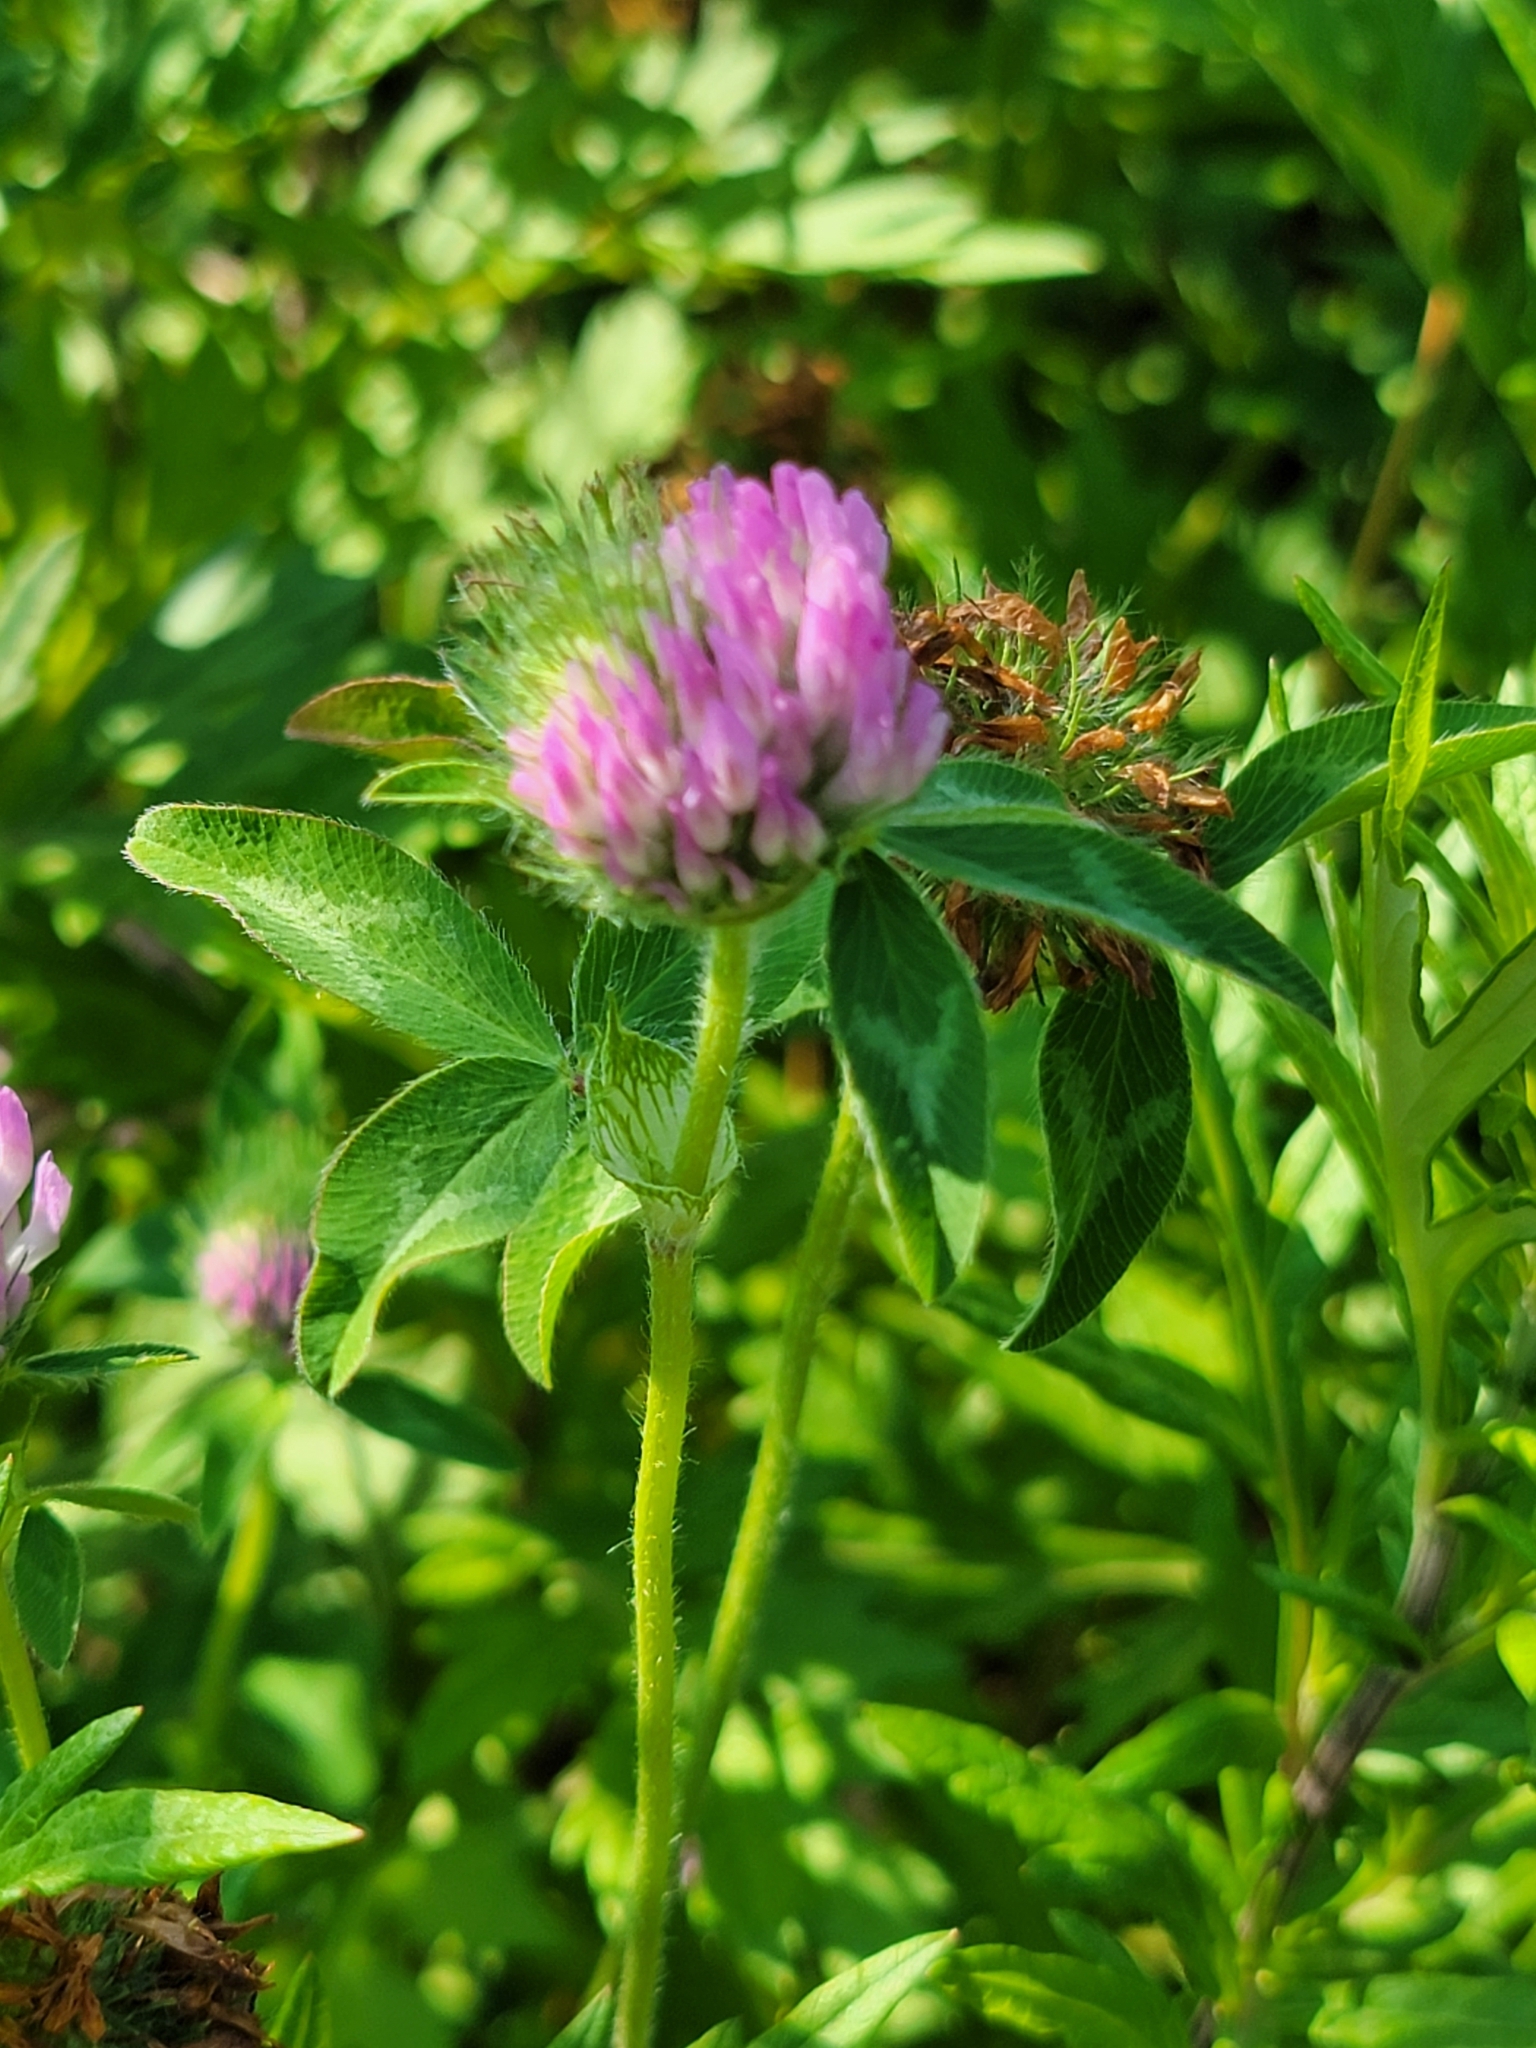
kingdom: Plantae
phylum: Tracheophyta
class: Magnoliopsida
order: Fabales
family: Fabaceae
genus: Trifolium
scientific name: Trifolium pratense
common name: Red clover
